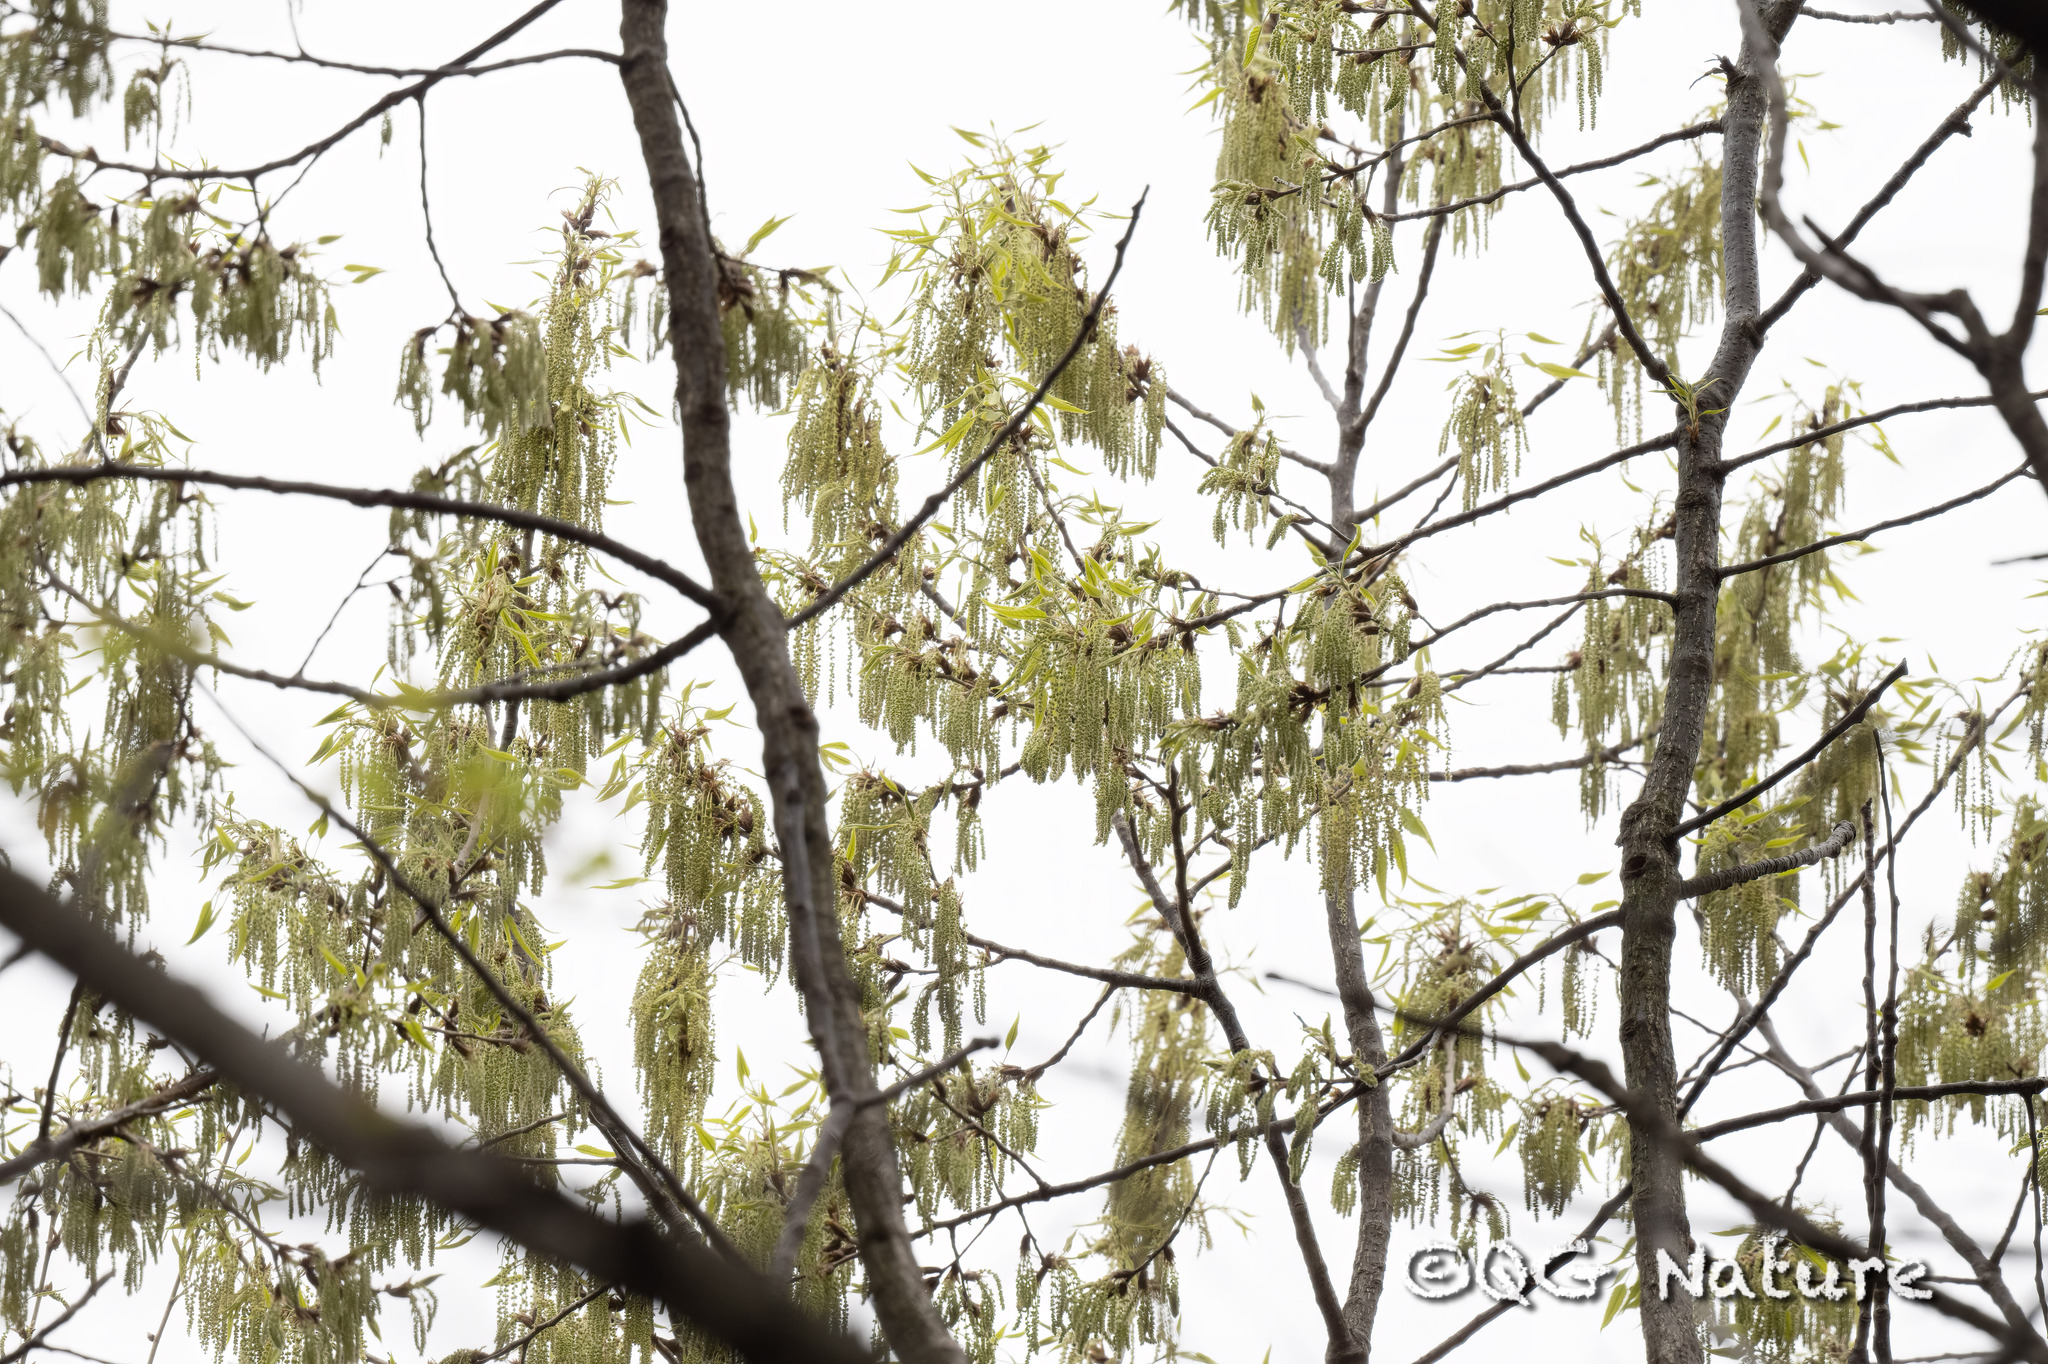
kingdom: Plantae
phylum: Tracheophyta
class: Magnoliopsida
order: Fagales
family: Fagaceae
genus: Quercus
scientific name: Quercus acutissima
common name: Sawtooth oak
